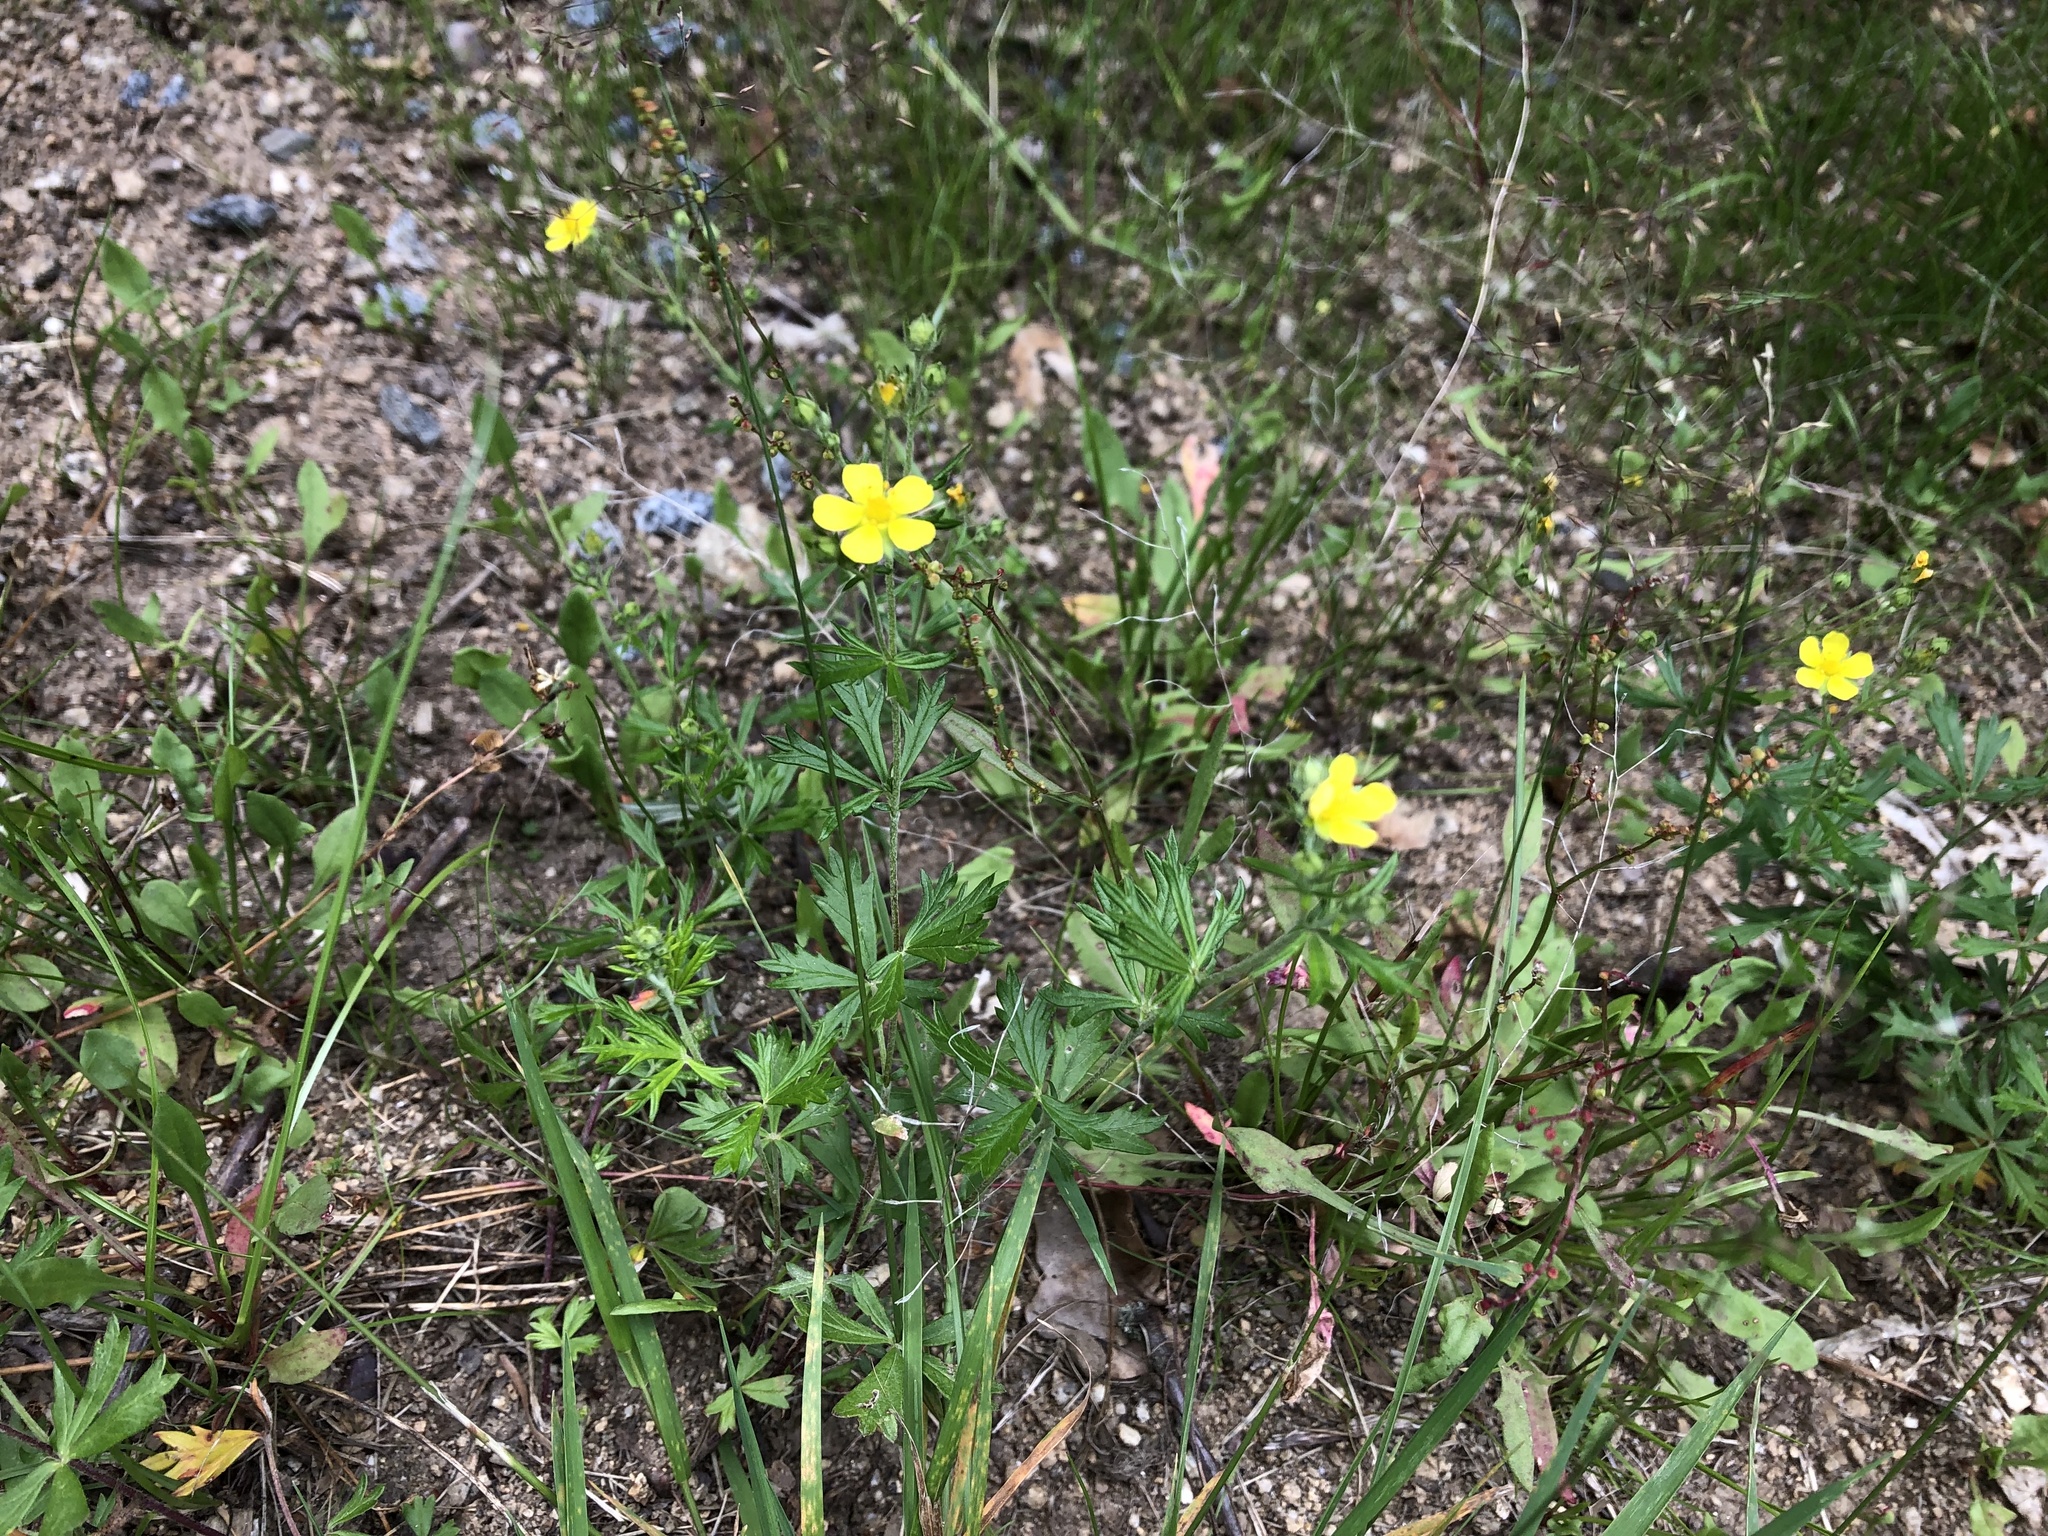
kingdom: Plantae
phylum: Tracheophyta
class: Magnoliopsida
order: Rosales
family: Rosaceae
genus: Potentilla
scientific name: Potentilla argentea
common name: Hoary cinquefoil
